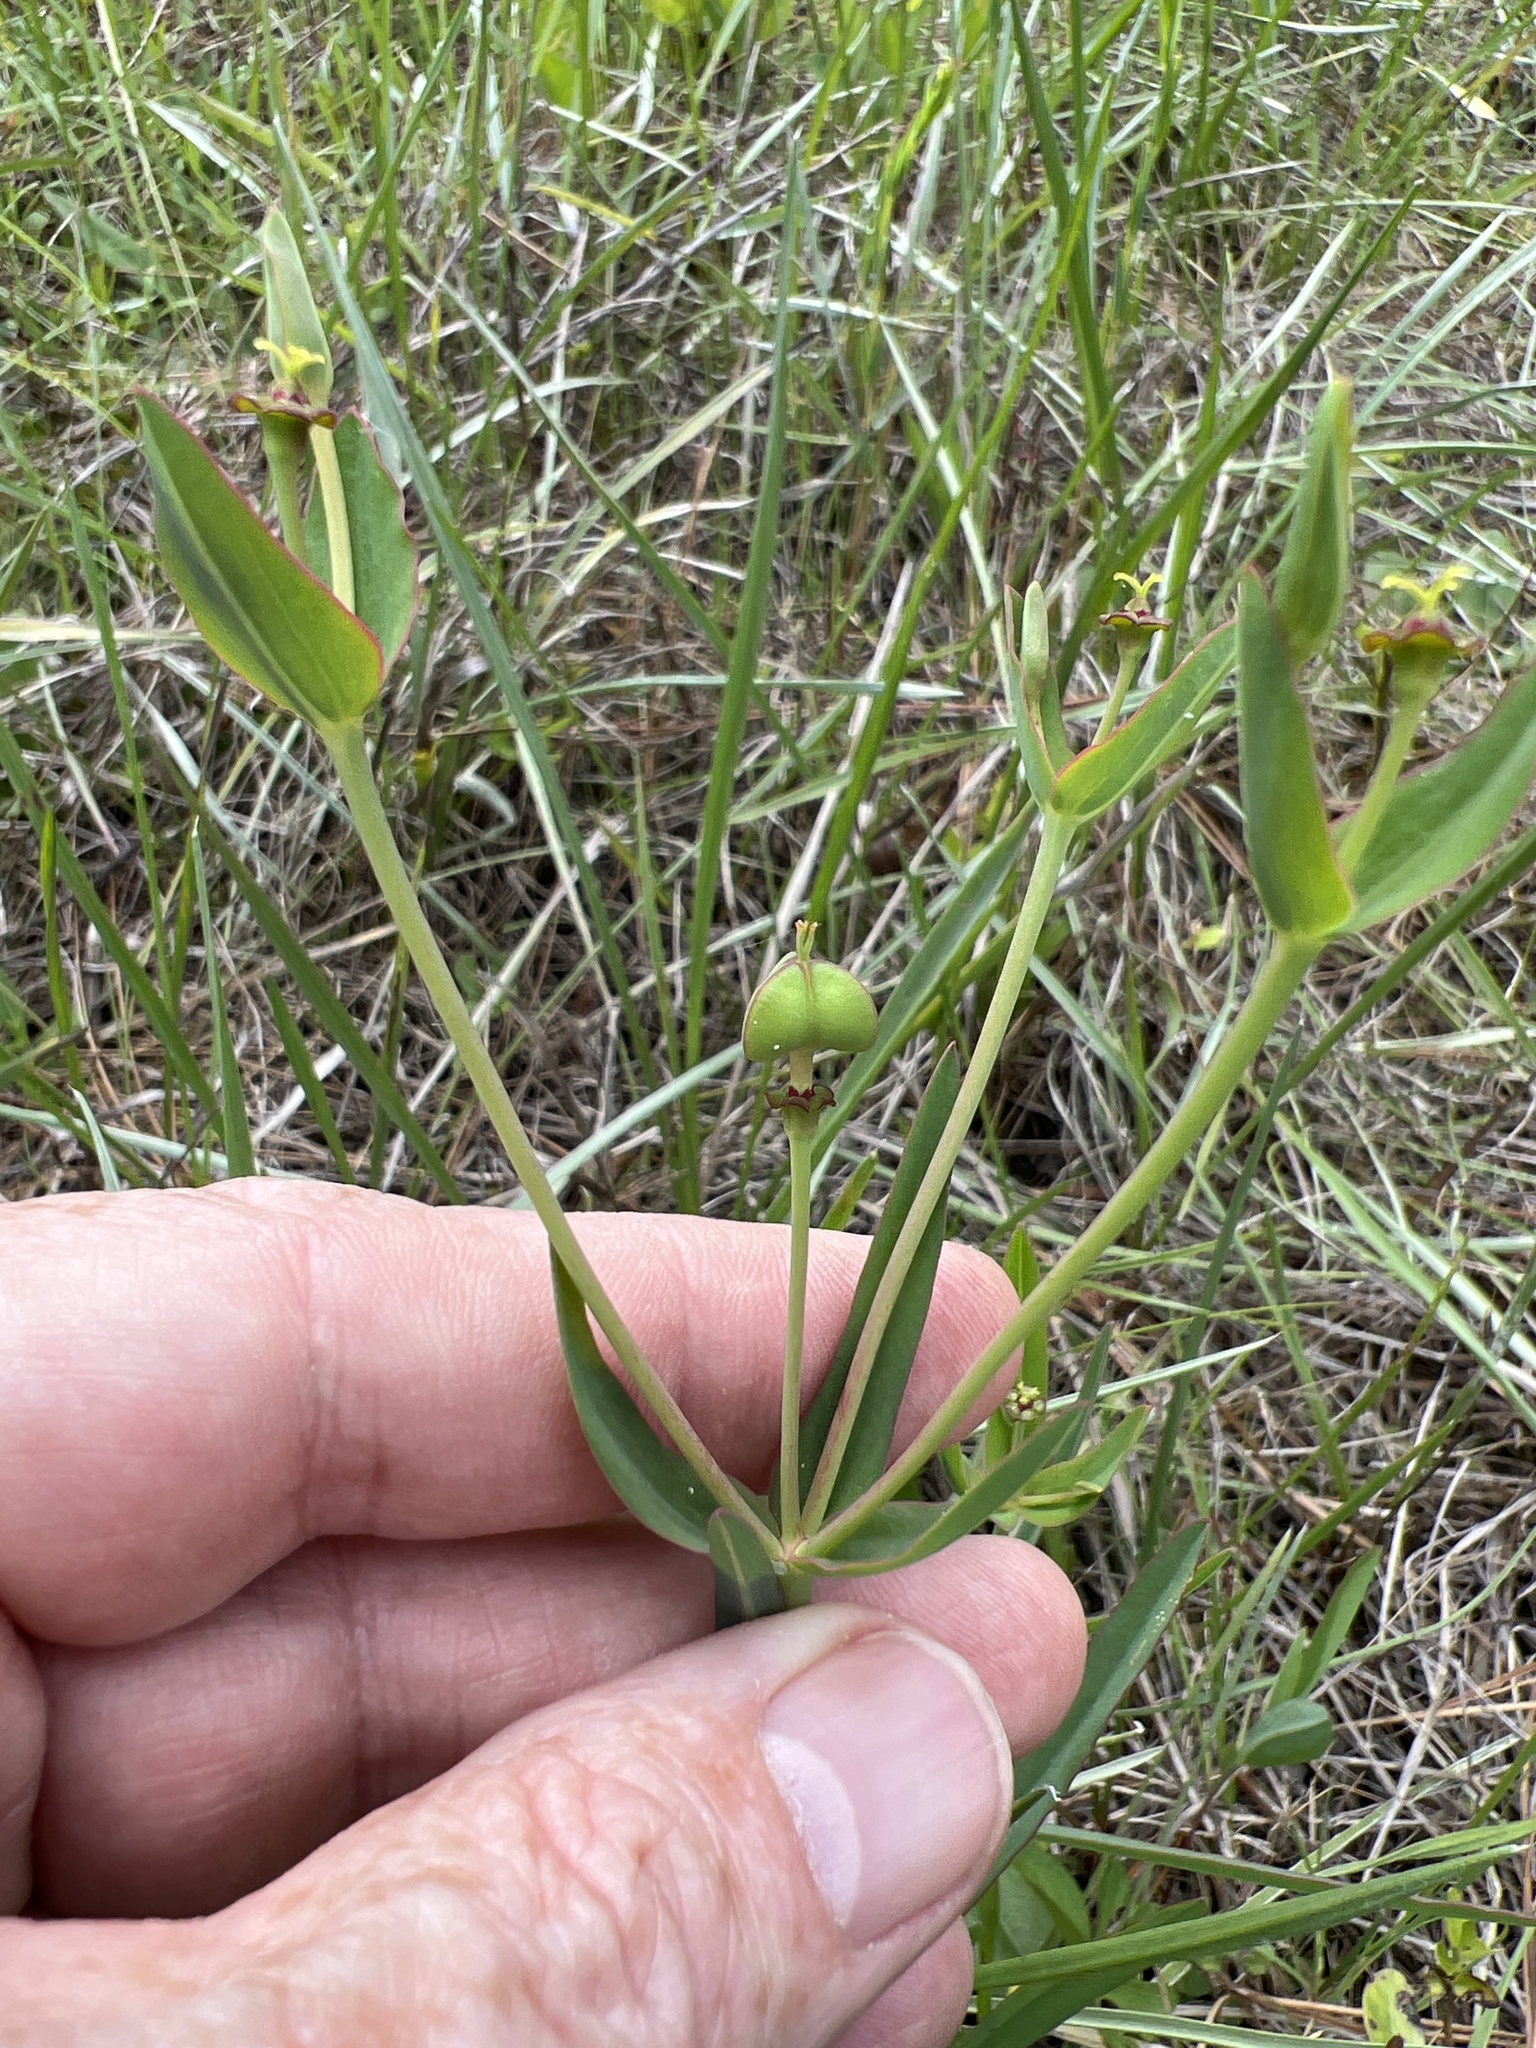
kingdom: Plantae
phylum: Tracheophyta
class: Magnoliopsida
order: Malpighiales
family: Euphorbiaceae
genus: Euphorbia
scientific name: Euphorbia inundata
